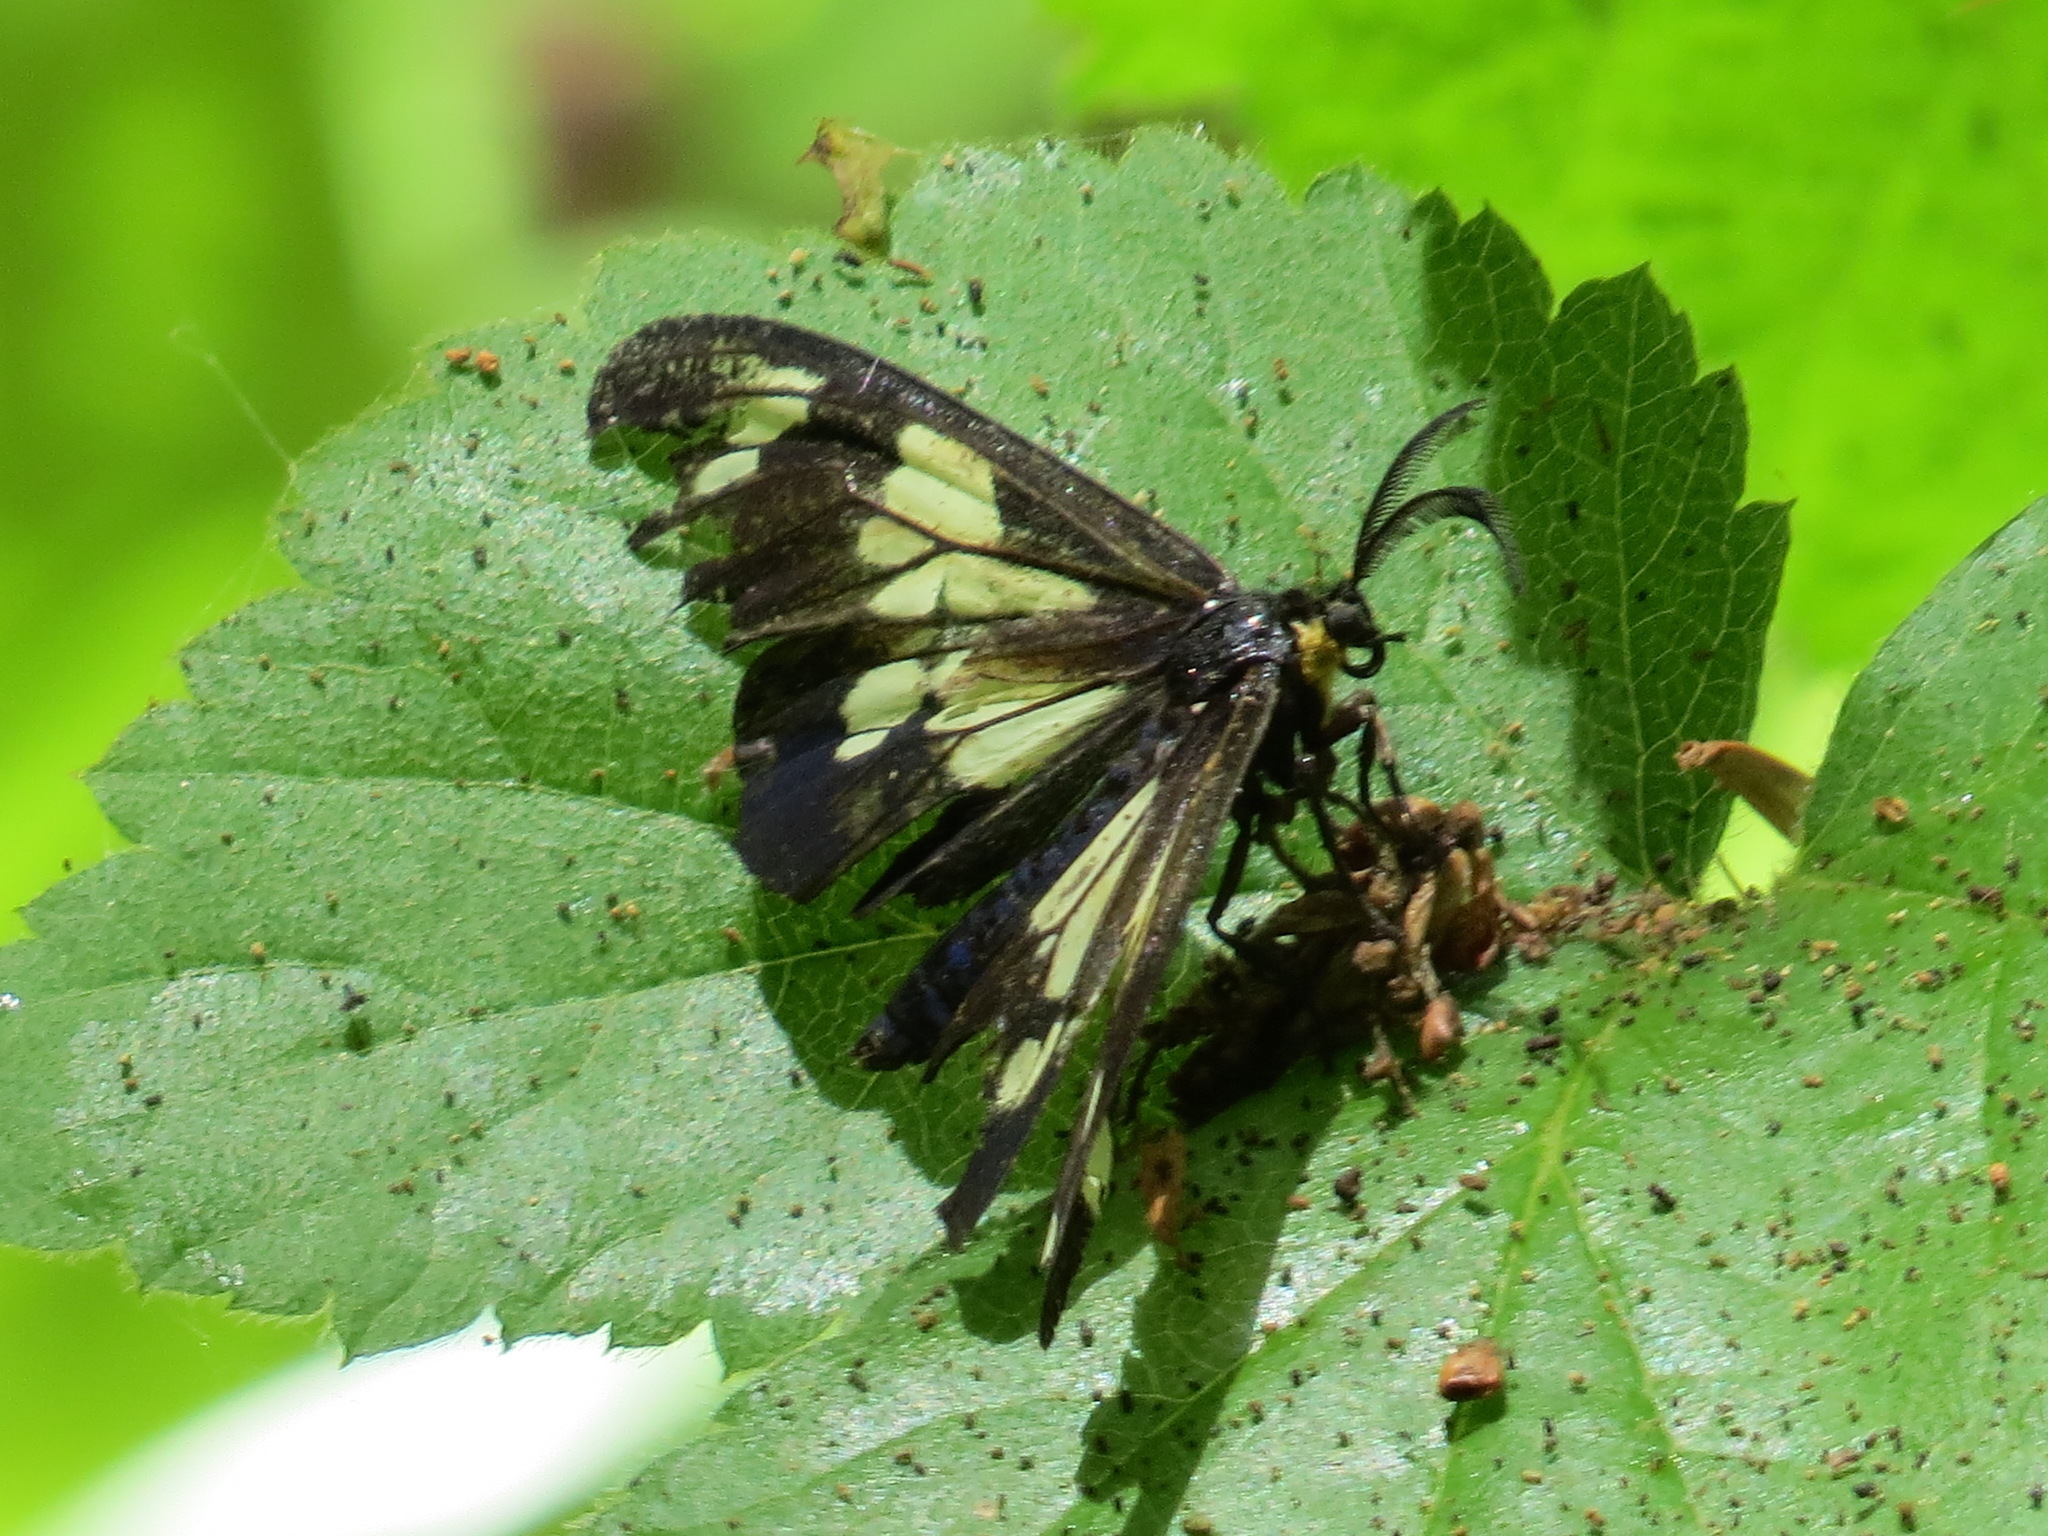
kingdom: Animalia
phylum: Arthropoda
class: Insecta
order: Lepidoptera
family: Erebidae
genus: Gnophaela
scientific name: Gnophaela latipennis
